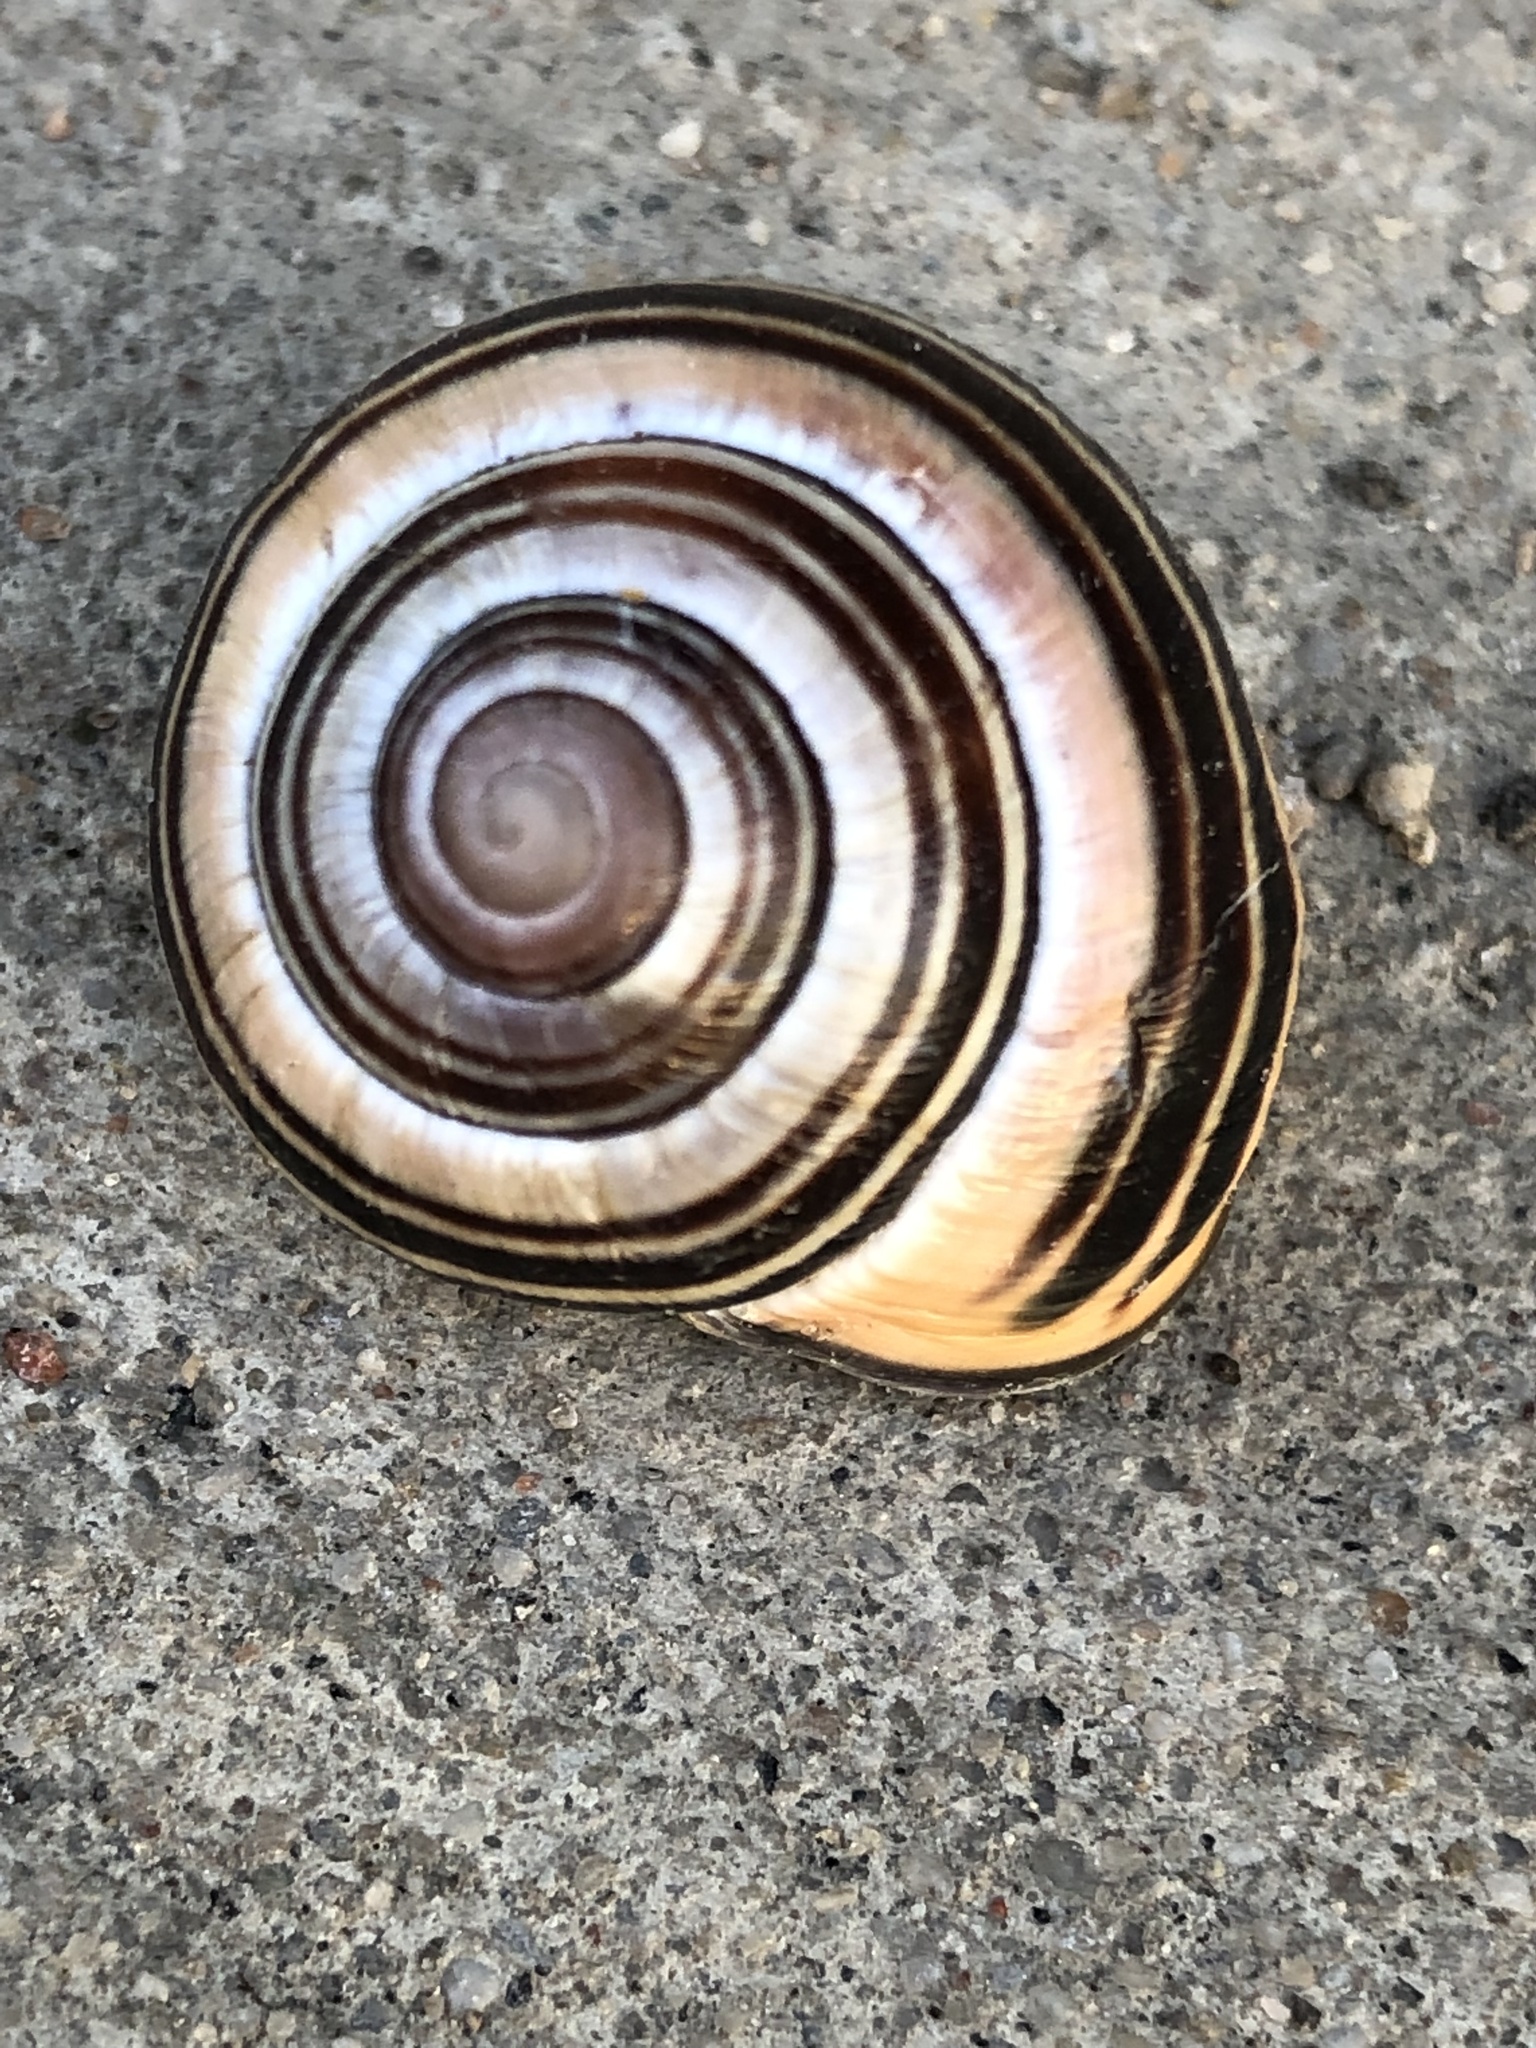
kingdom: Animalia
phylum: Mollusca
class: Gastropoda
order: Stylommatophora
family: Helicidae
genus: Cepaea
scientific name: Cepaea nemoralis
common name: Grovesnail
